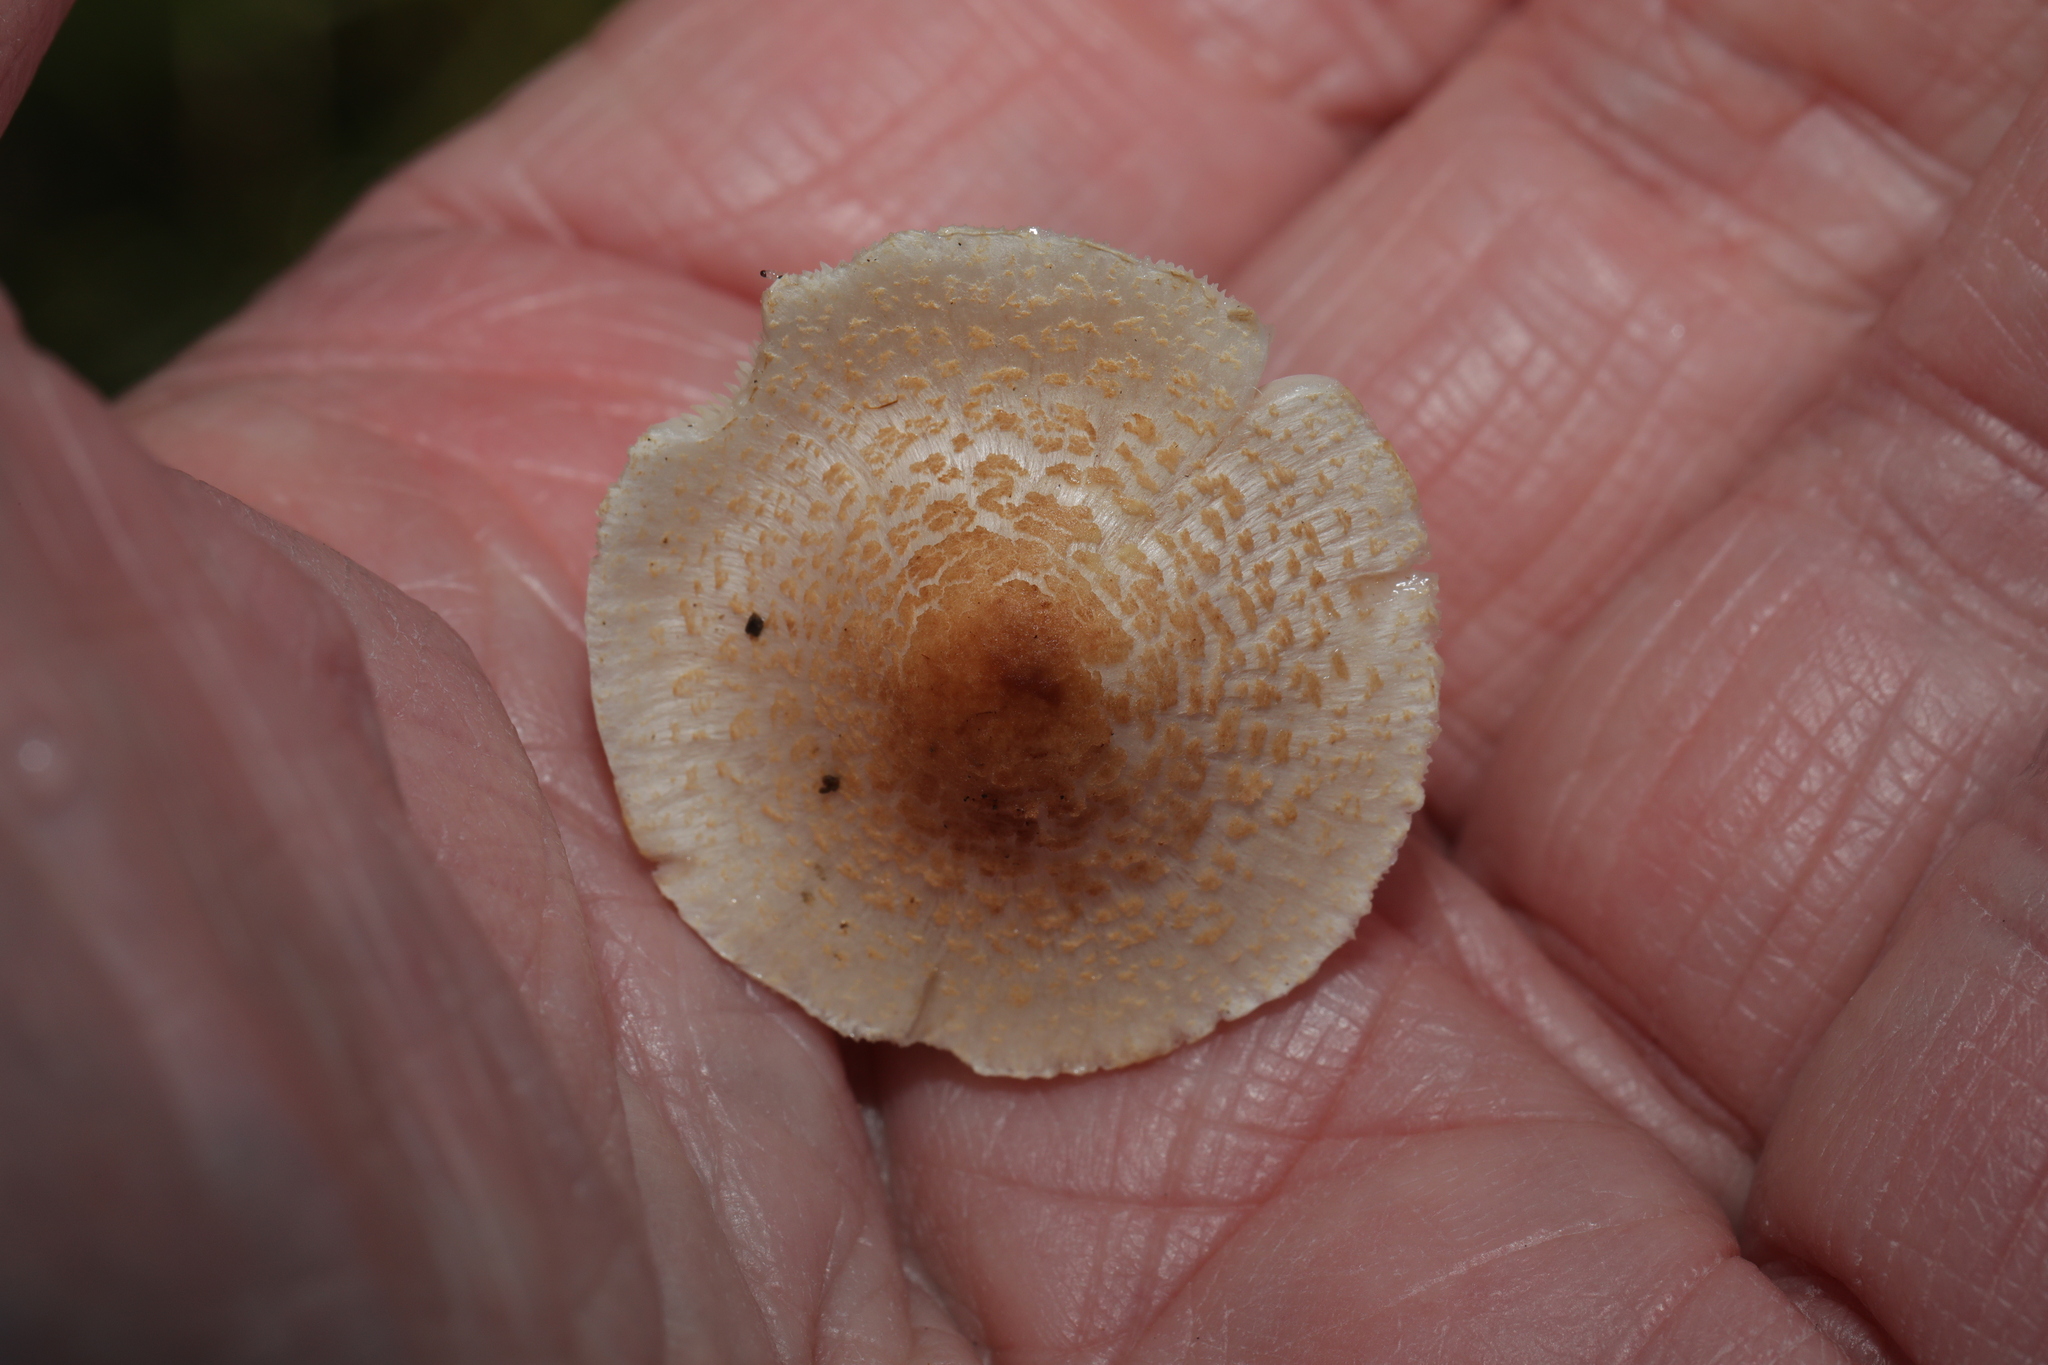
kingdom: Fungi
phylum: Basidiomycota
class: Agaricomycetes
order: Agaricales
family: Agaricaceae
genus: Lepiota
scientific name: Lepiota cristata
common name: Stinking dapperling
